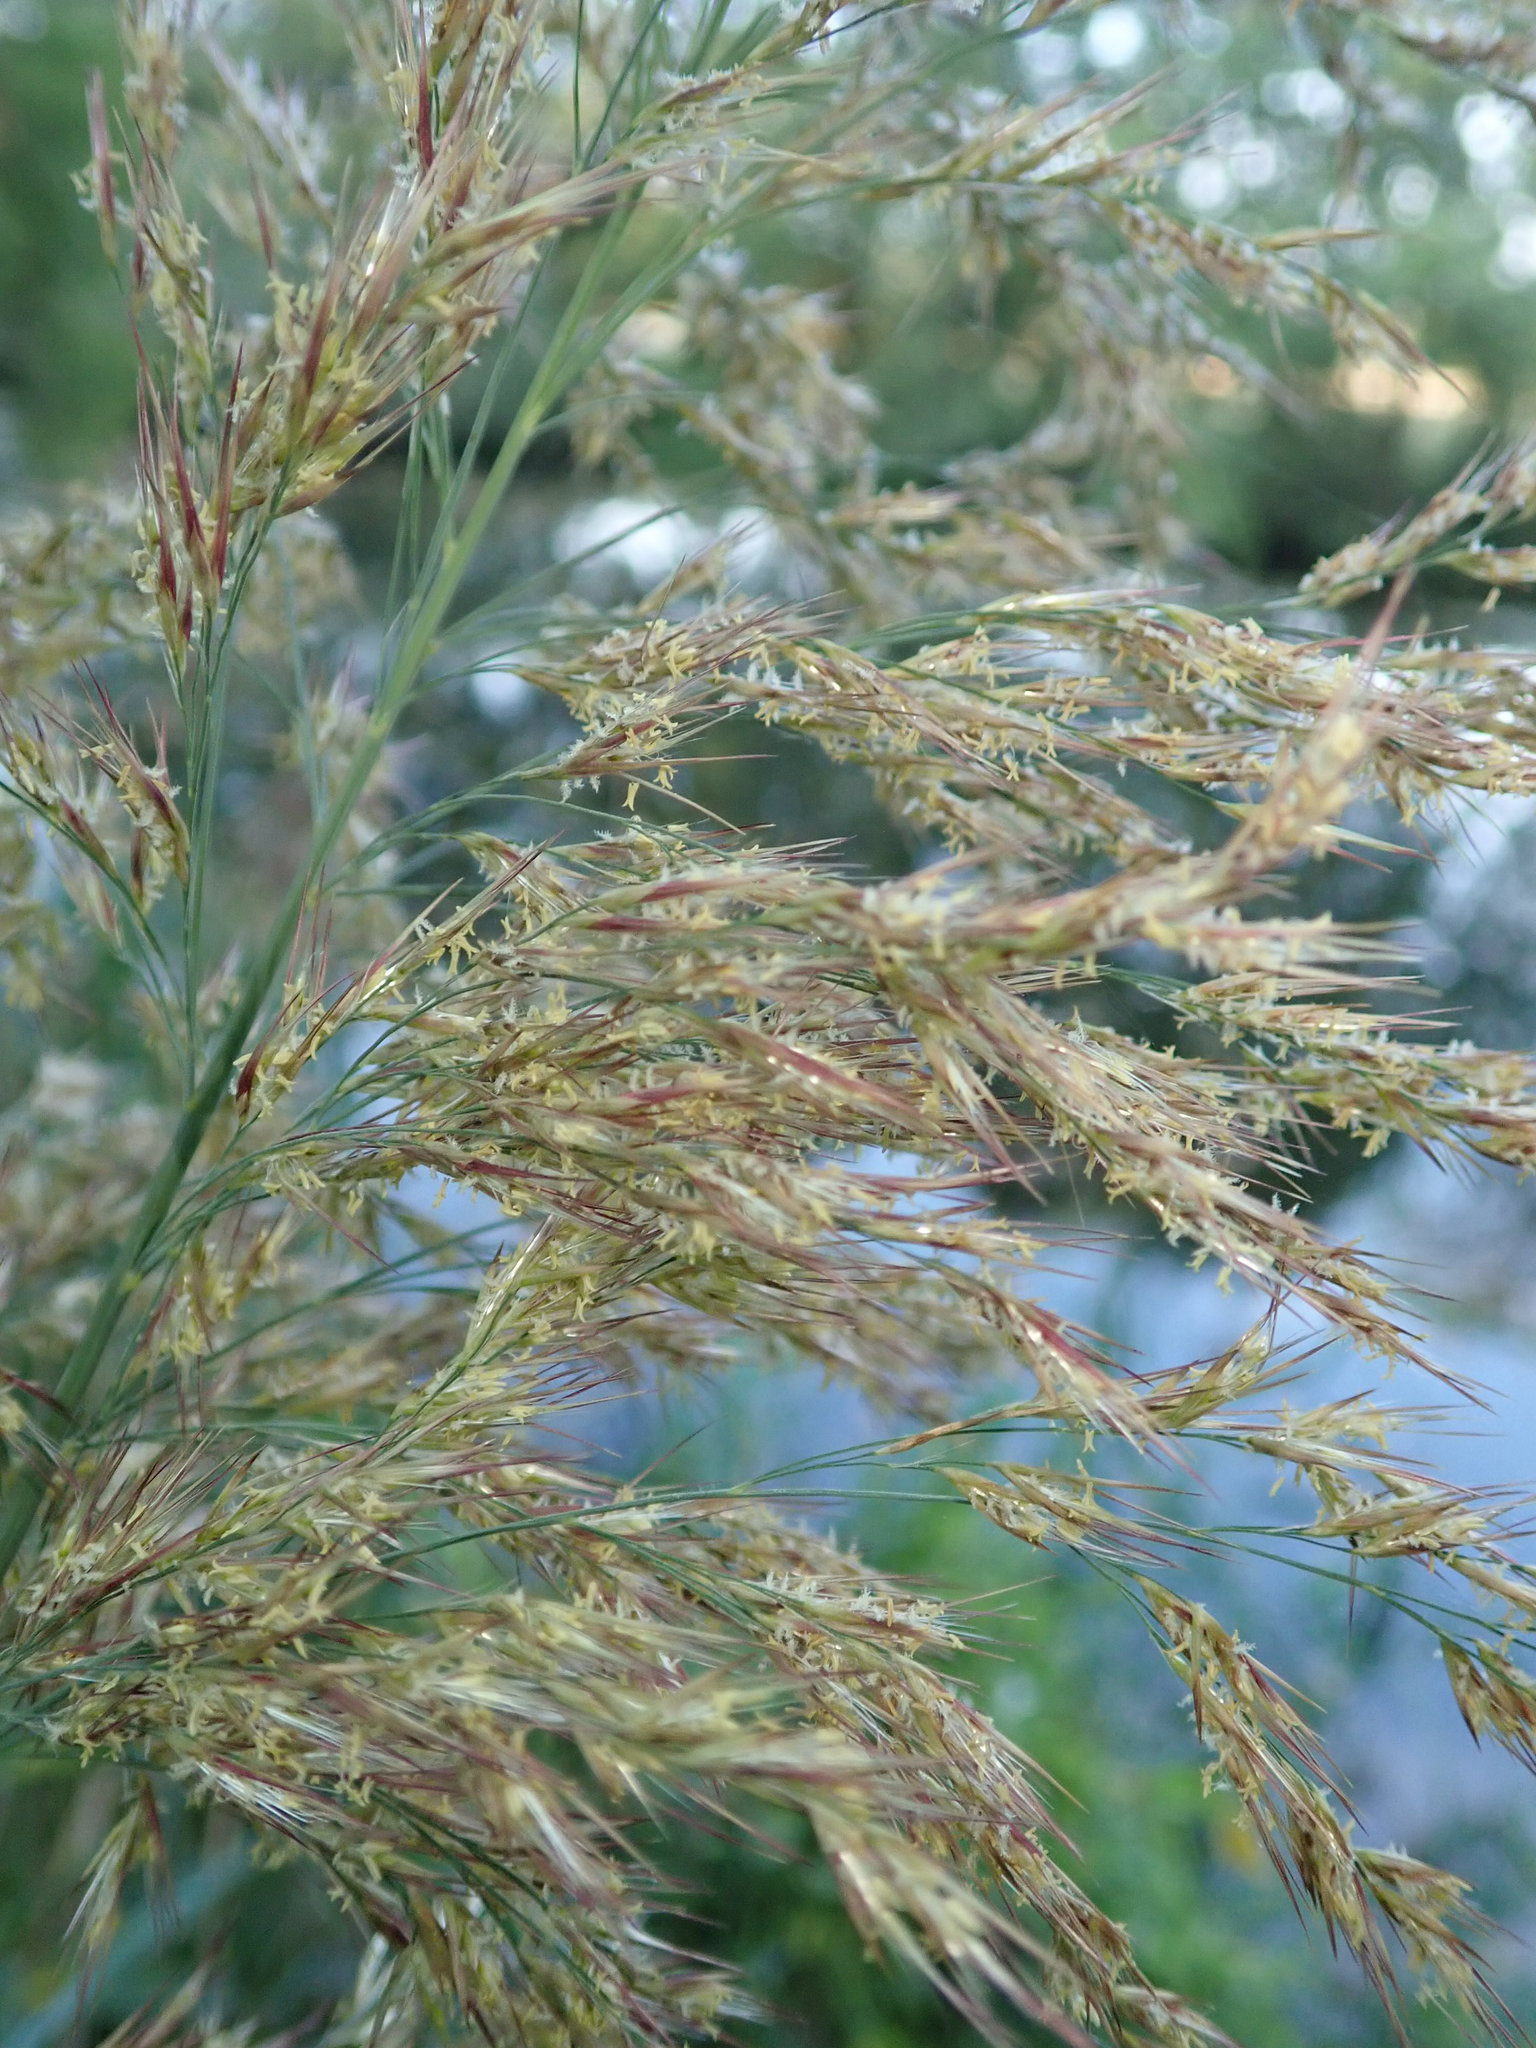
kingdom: Plantae
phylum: Tracheophyta
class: Liliopsida
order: Poales
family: Poaceae
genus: Phragmites
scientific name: Phragmites australis
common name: Common reed
